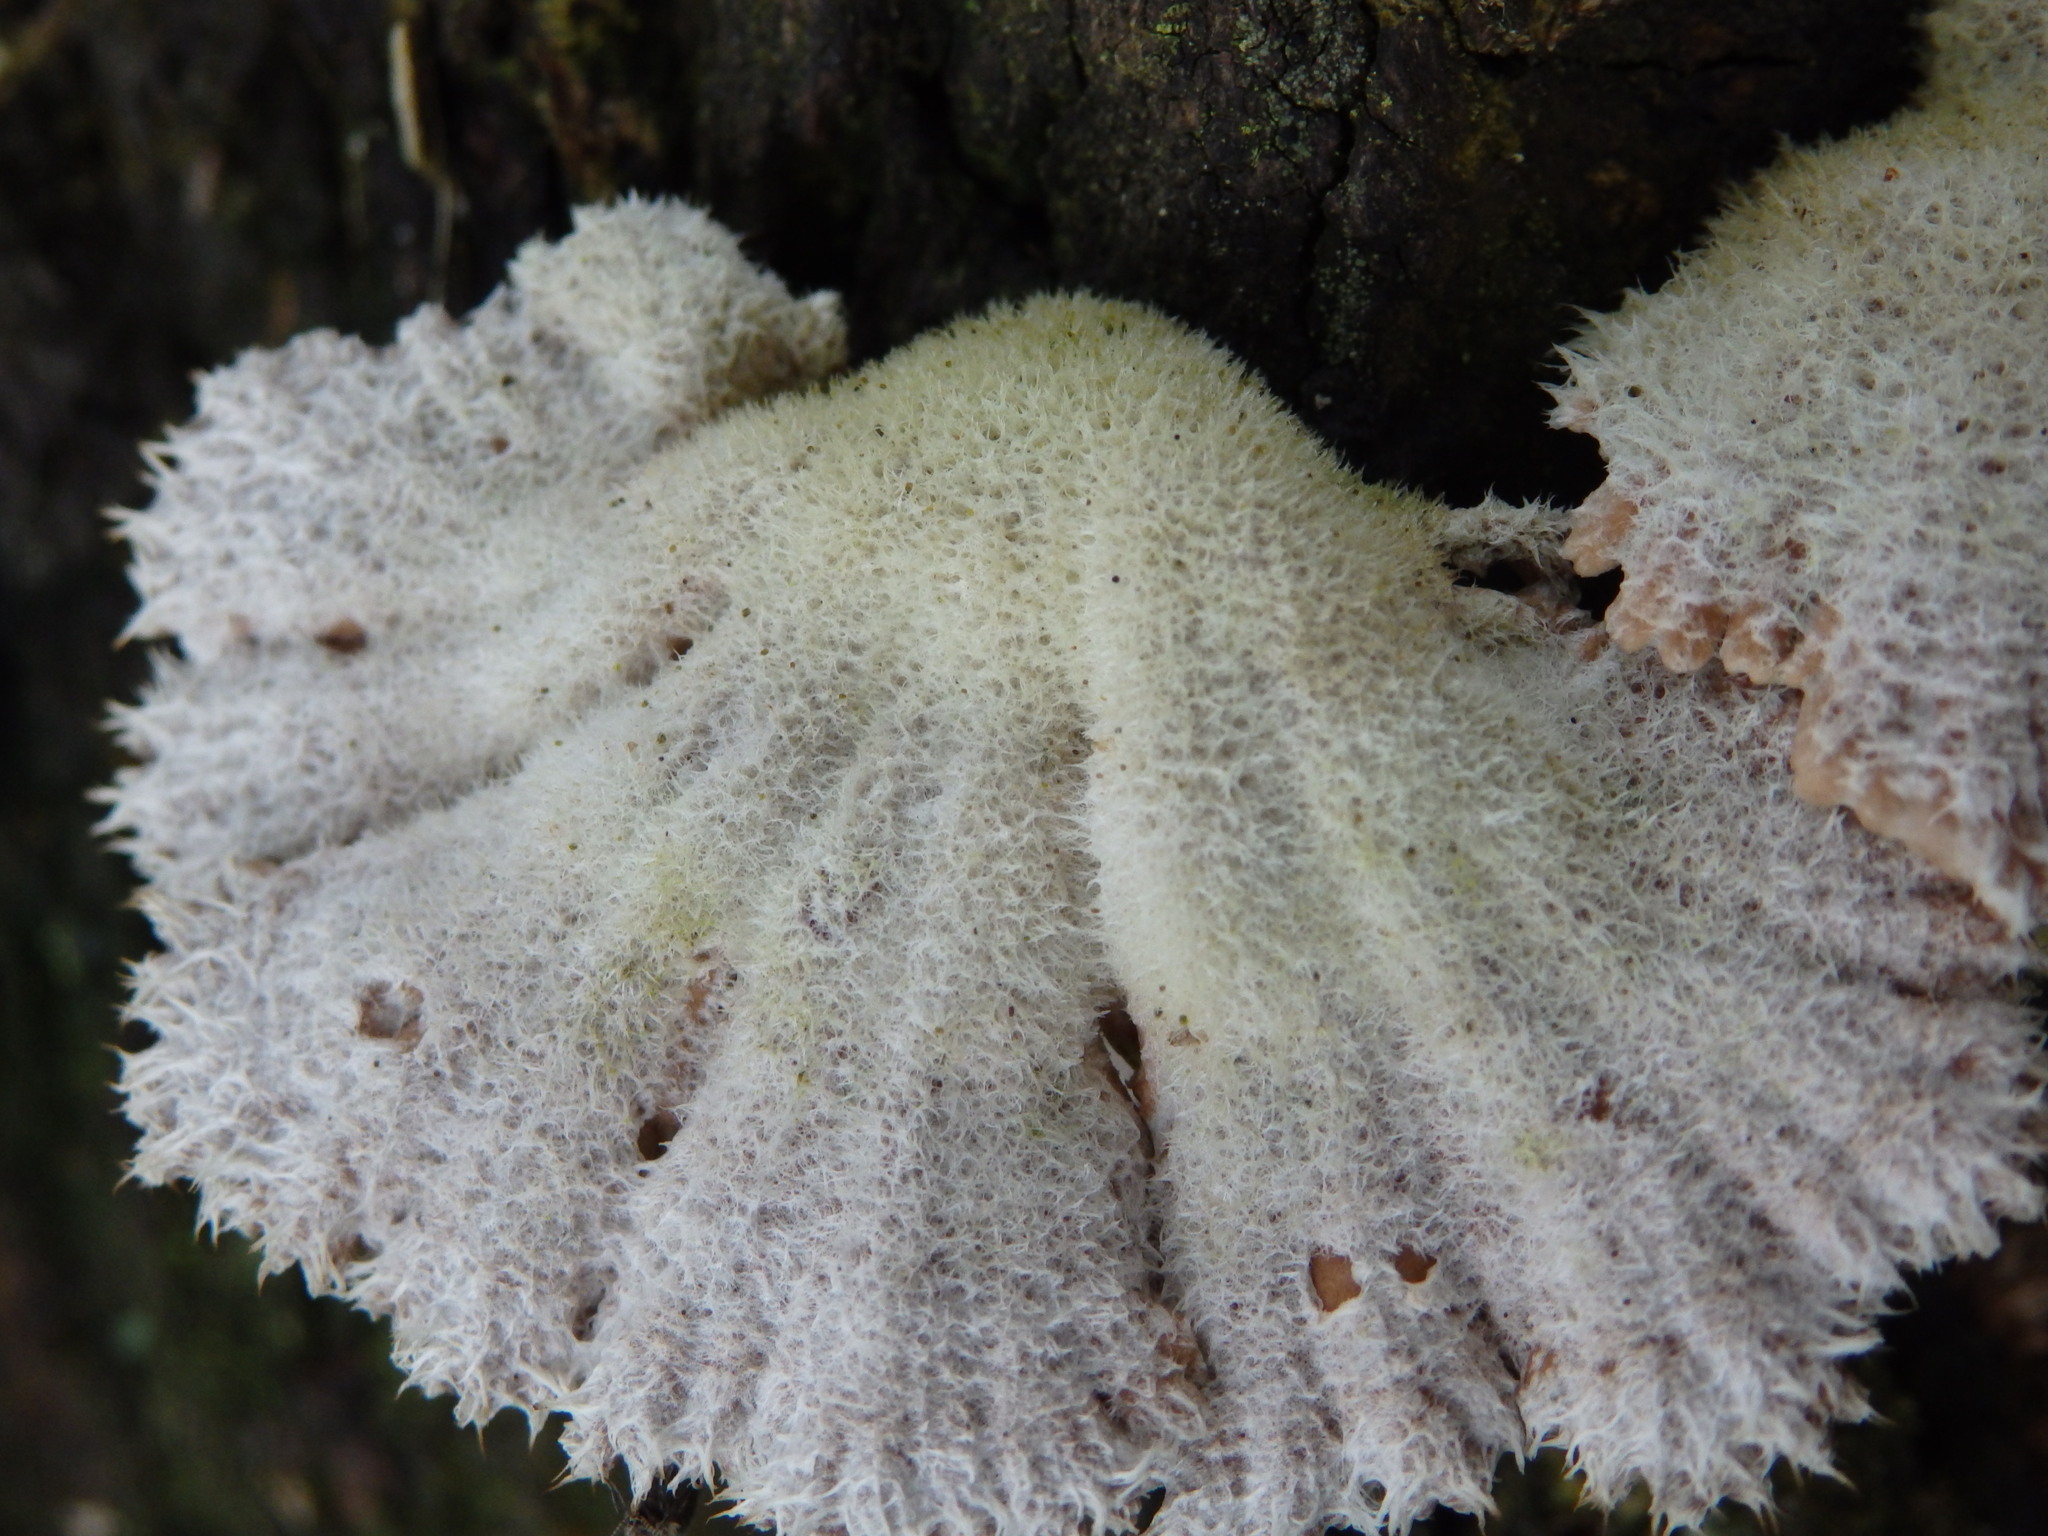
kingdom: Fungi
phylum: Basidiomycota
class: Agaricomycetes
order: Agaricales
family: Schizophyllaceae
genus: Schizophyllum
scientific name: Schizophyllum commune
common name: Common porecrust
